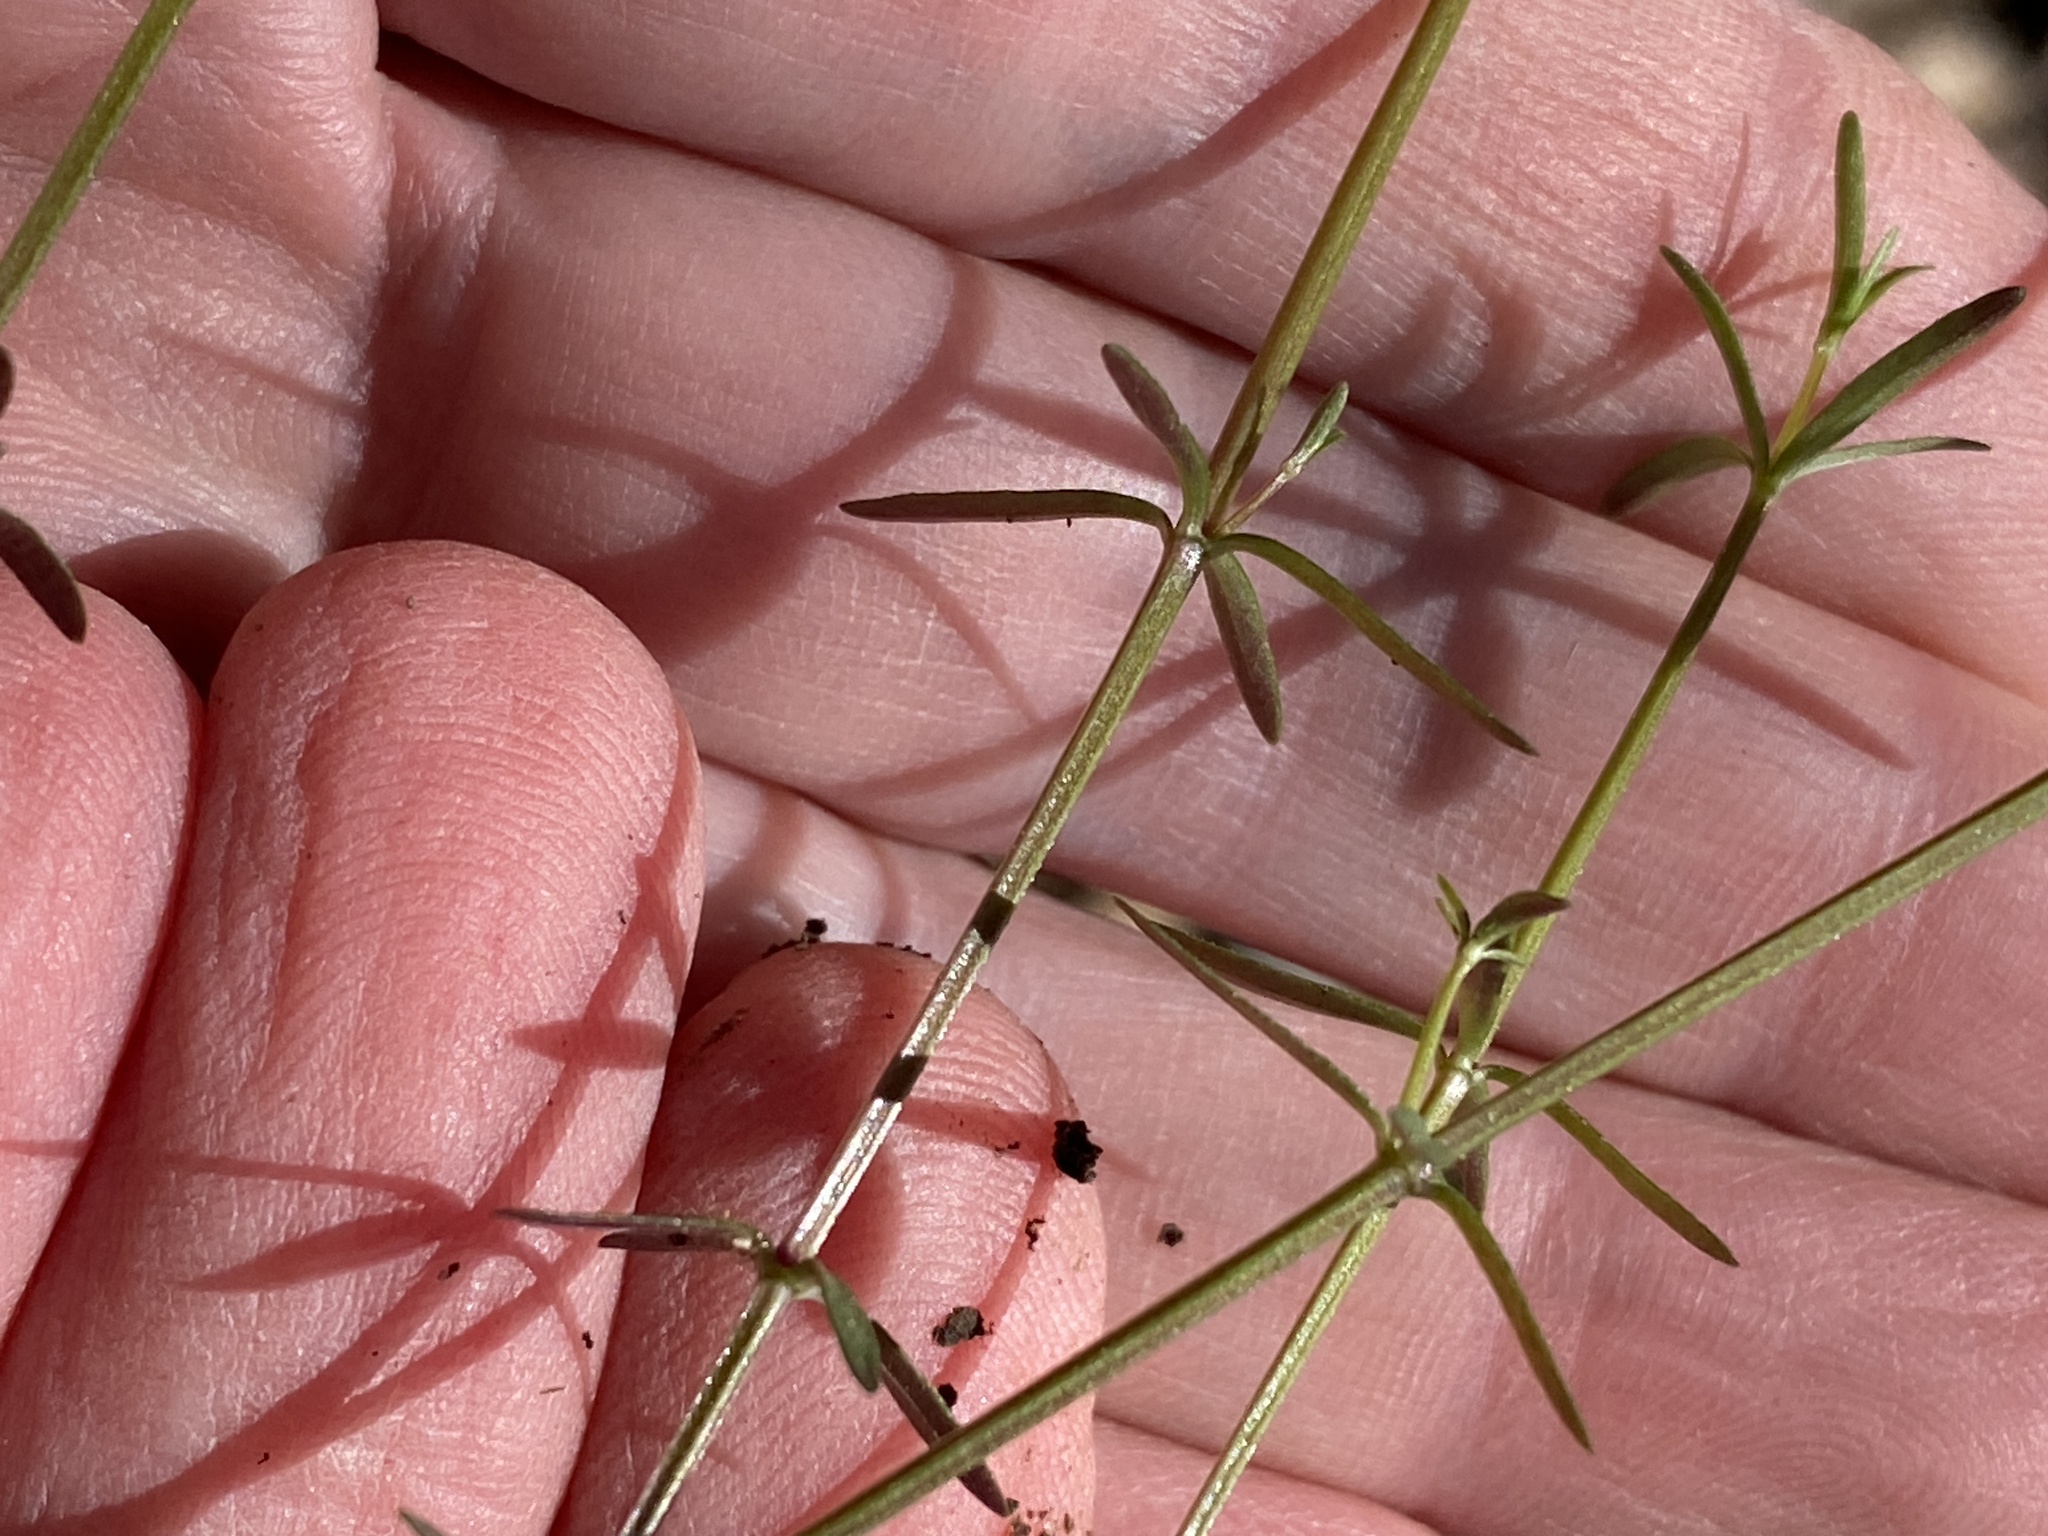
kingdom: Plantae
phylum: Tracheophyta
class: Magnoliopsida
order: Gentianales
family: Rubiaceae
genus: Galium
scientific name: Galium obtusum
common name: Blunt-leaved bedstraw
